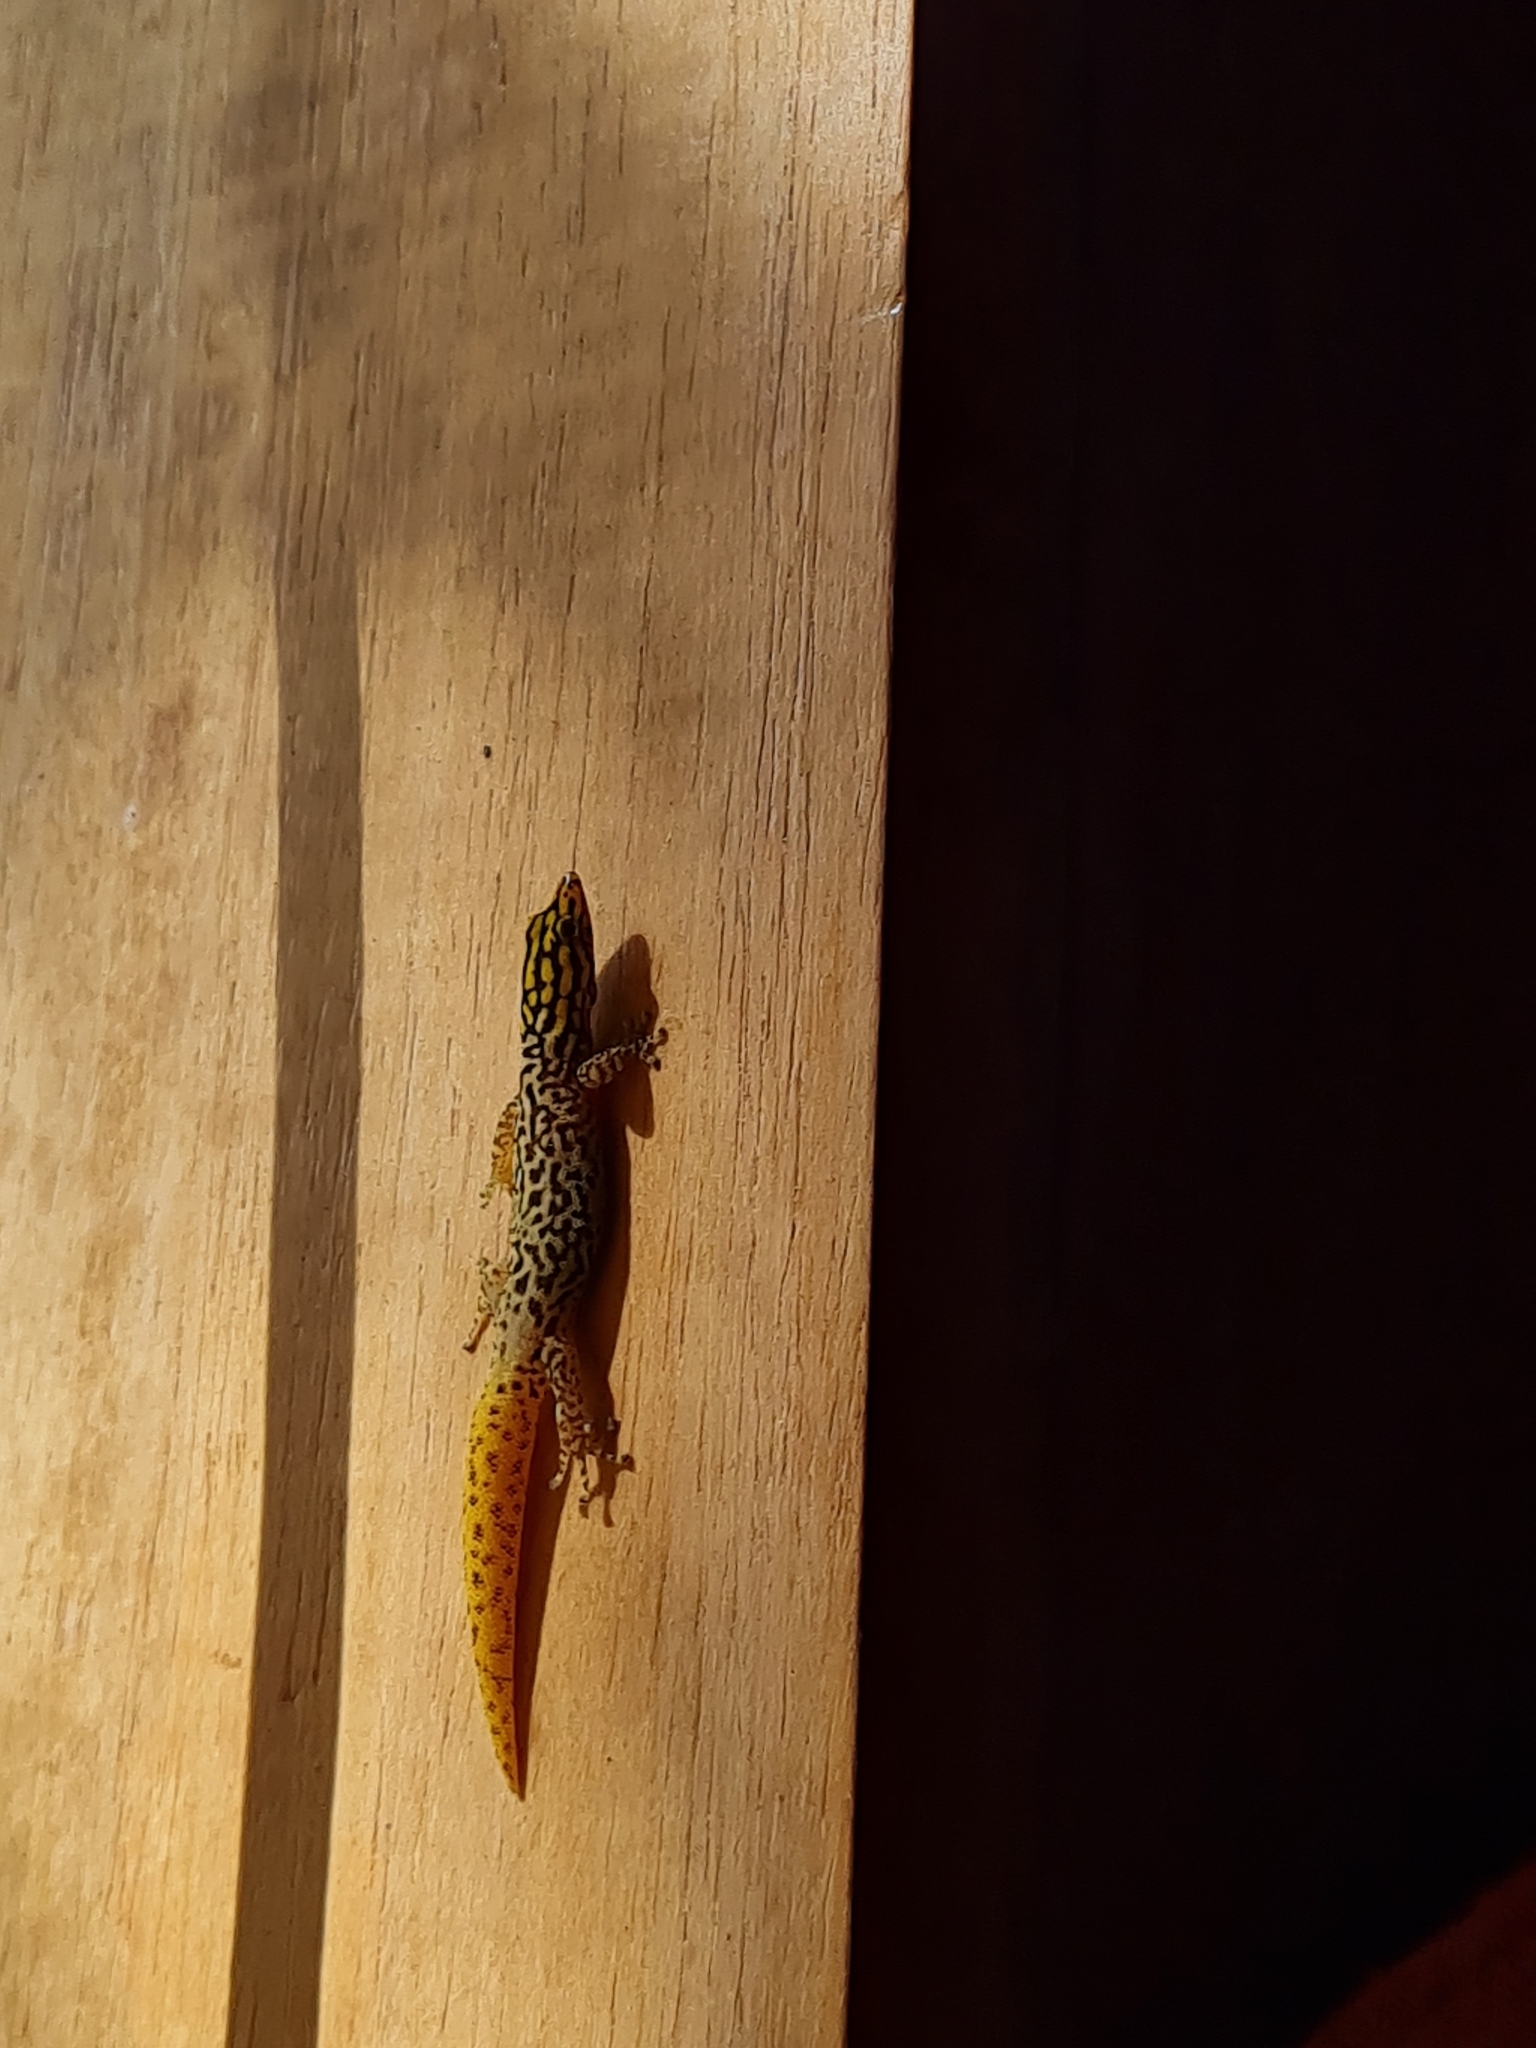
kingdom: Animalia
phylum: Chordata
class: Squamata
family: Sphaerodactylidae
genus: Sphaerodactylus
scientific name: Sphaerodactylus homolepis
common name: Caribbean least gecko
